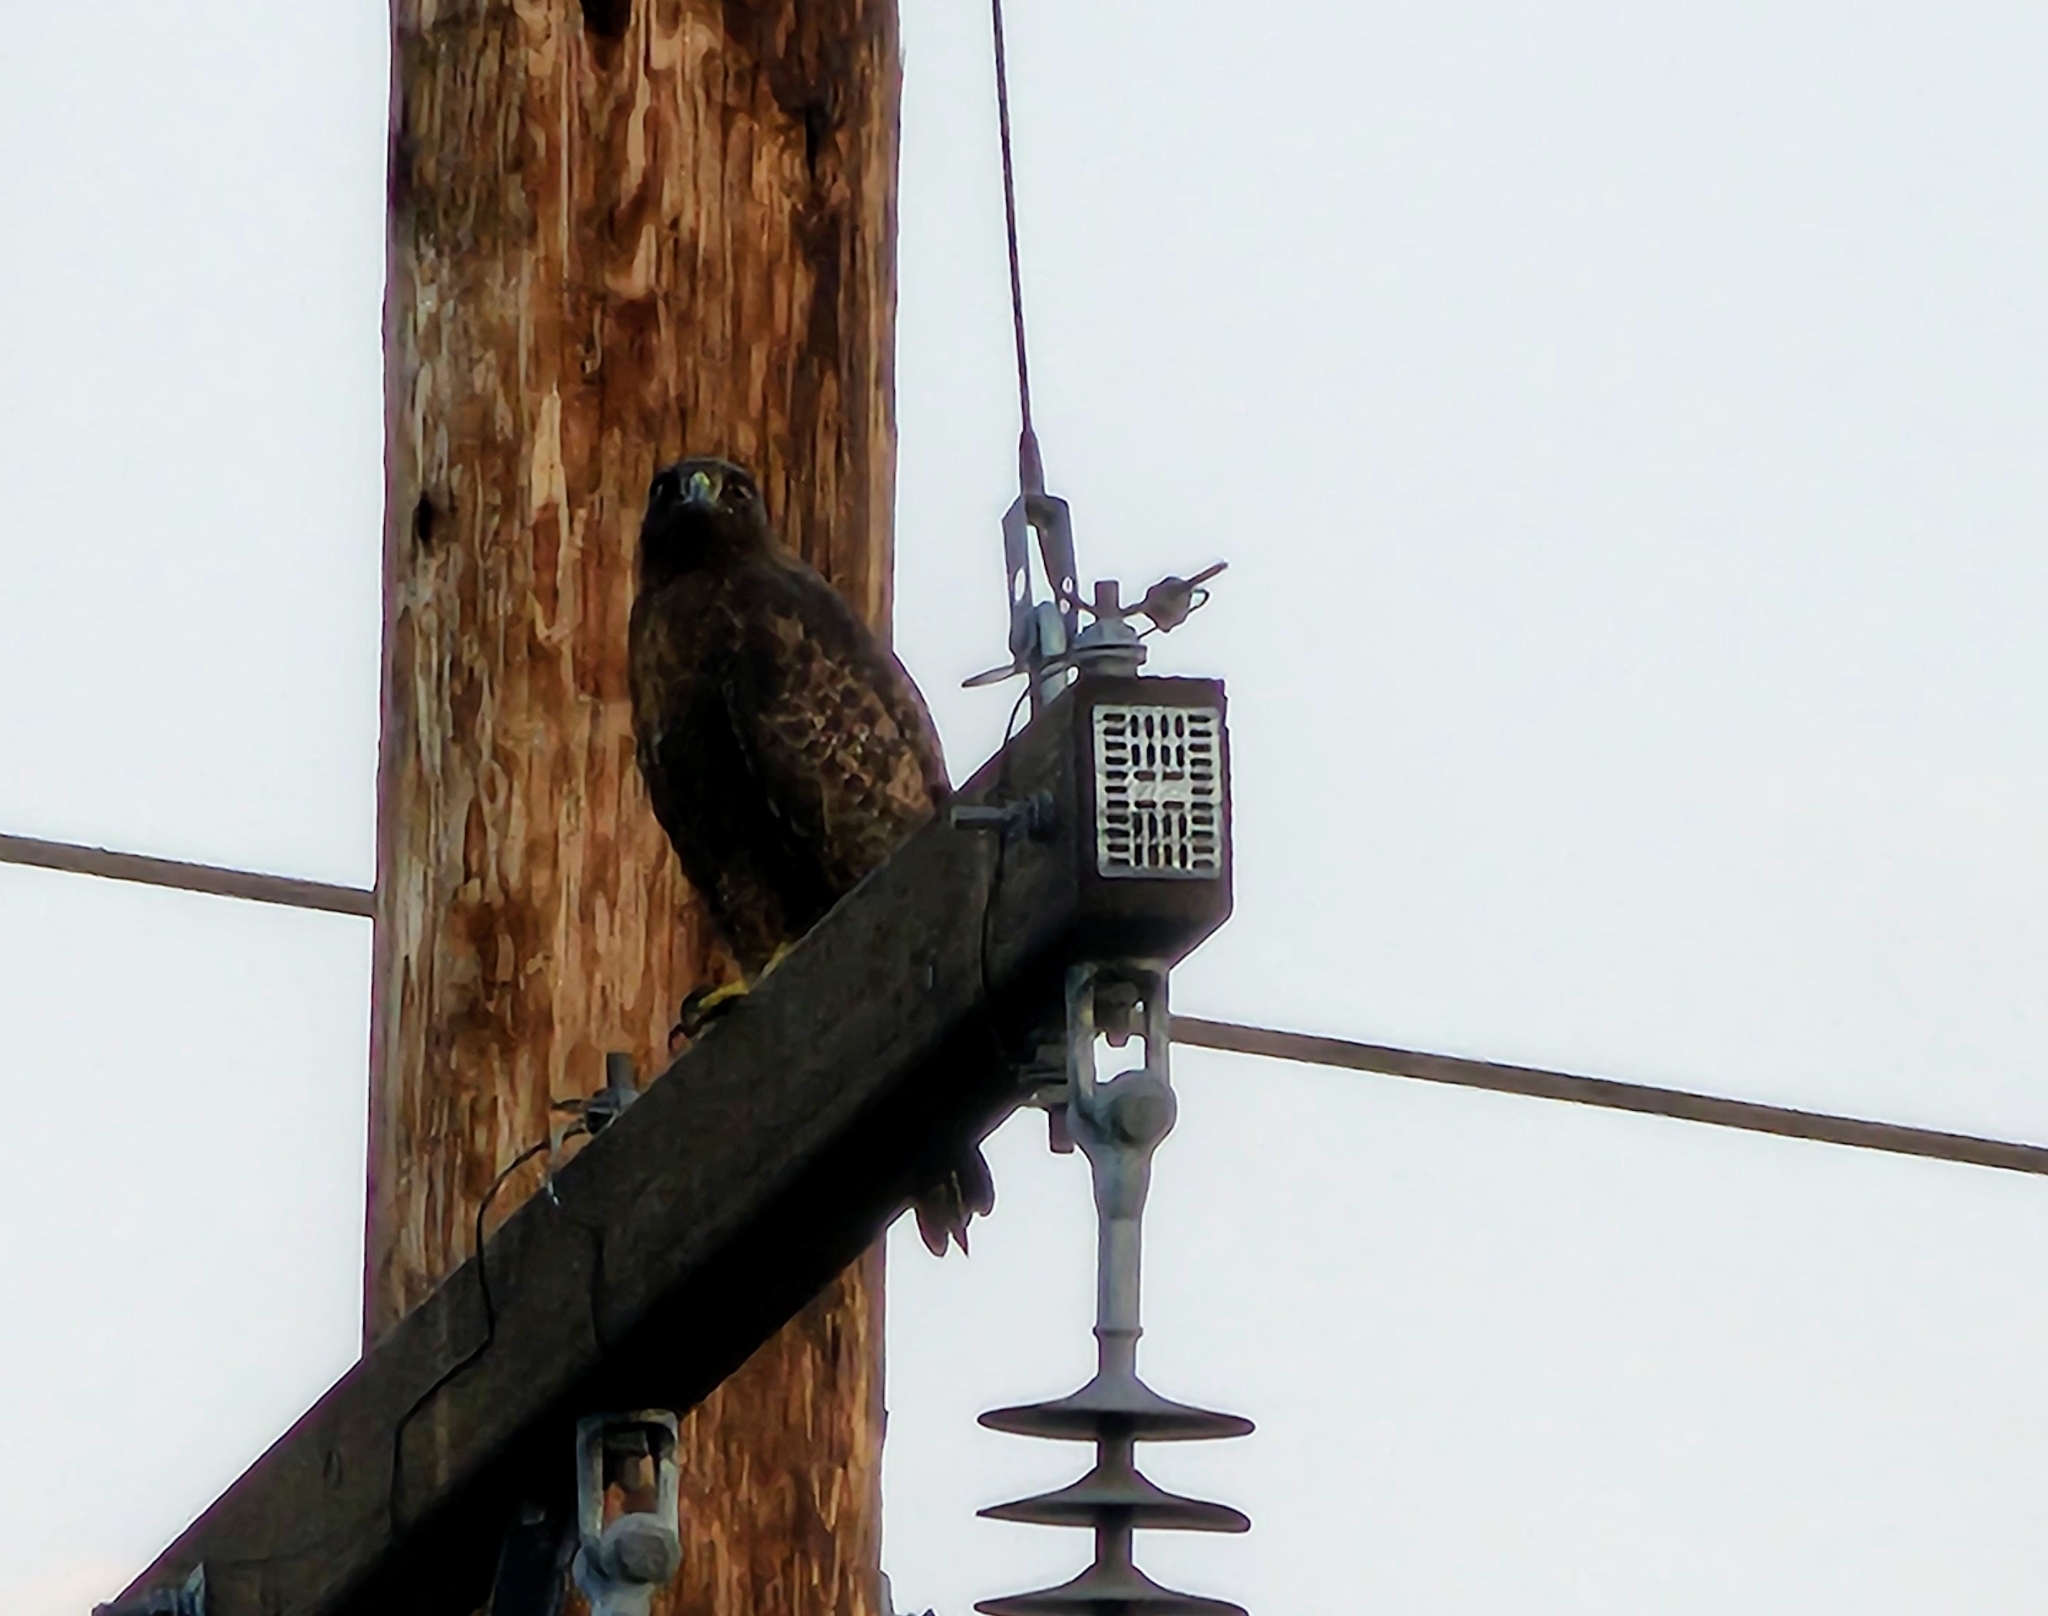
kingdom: Animalia
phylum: Chordata
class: Aves
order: Accipitriformes
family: Accipitridae
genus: Buteo
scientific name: Buteo jamaicensis
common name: Red-tailed hawk
